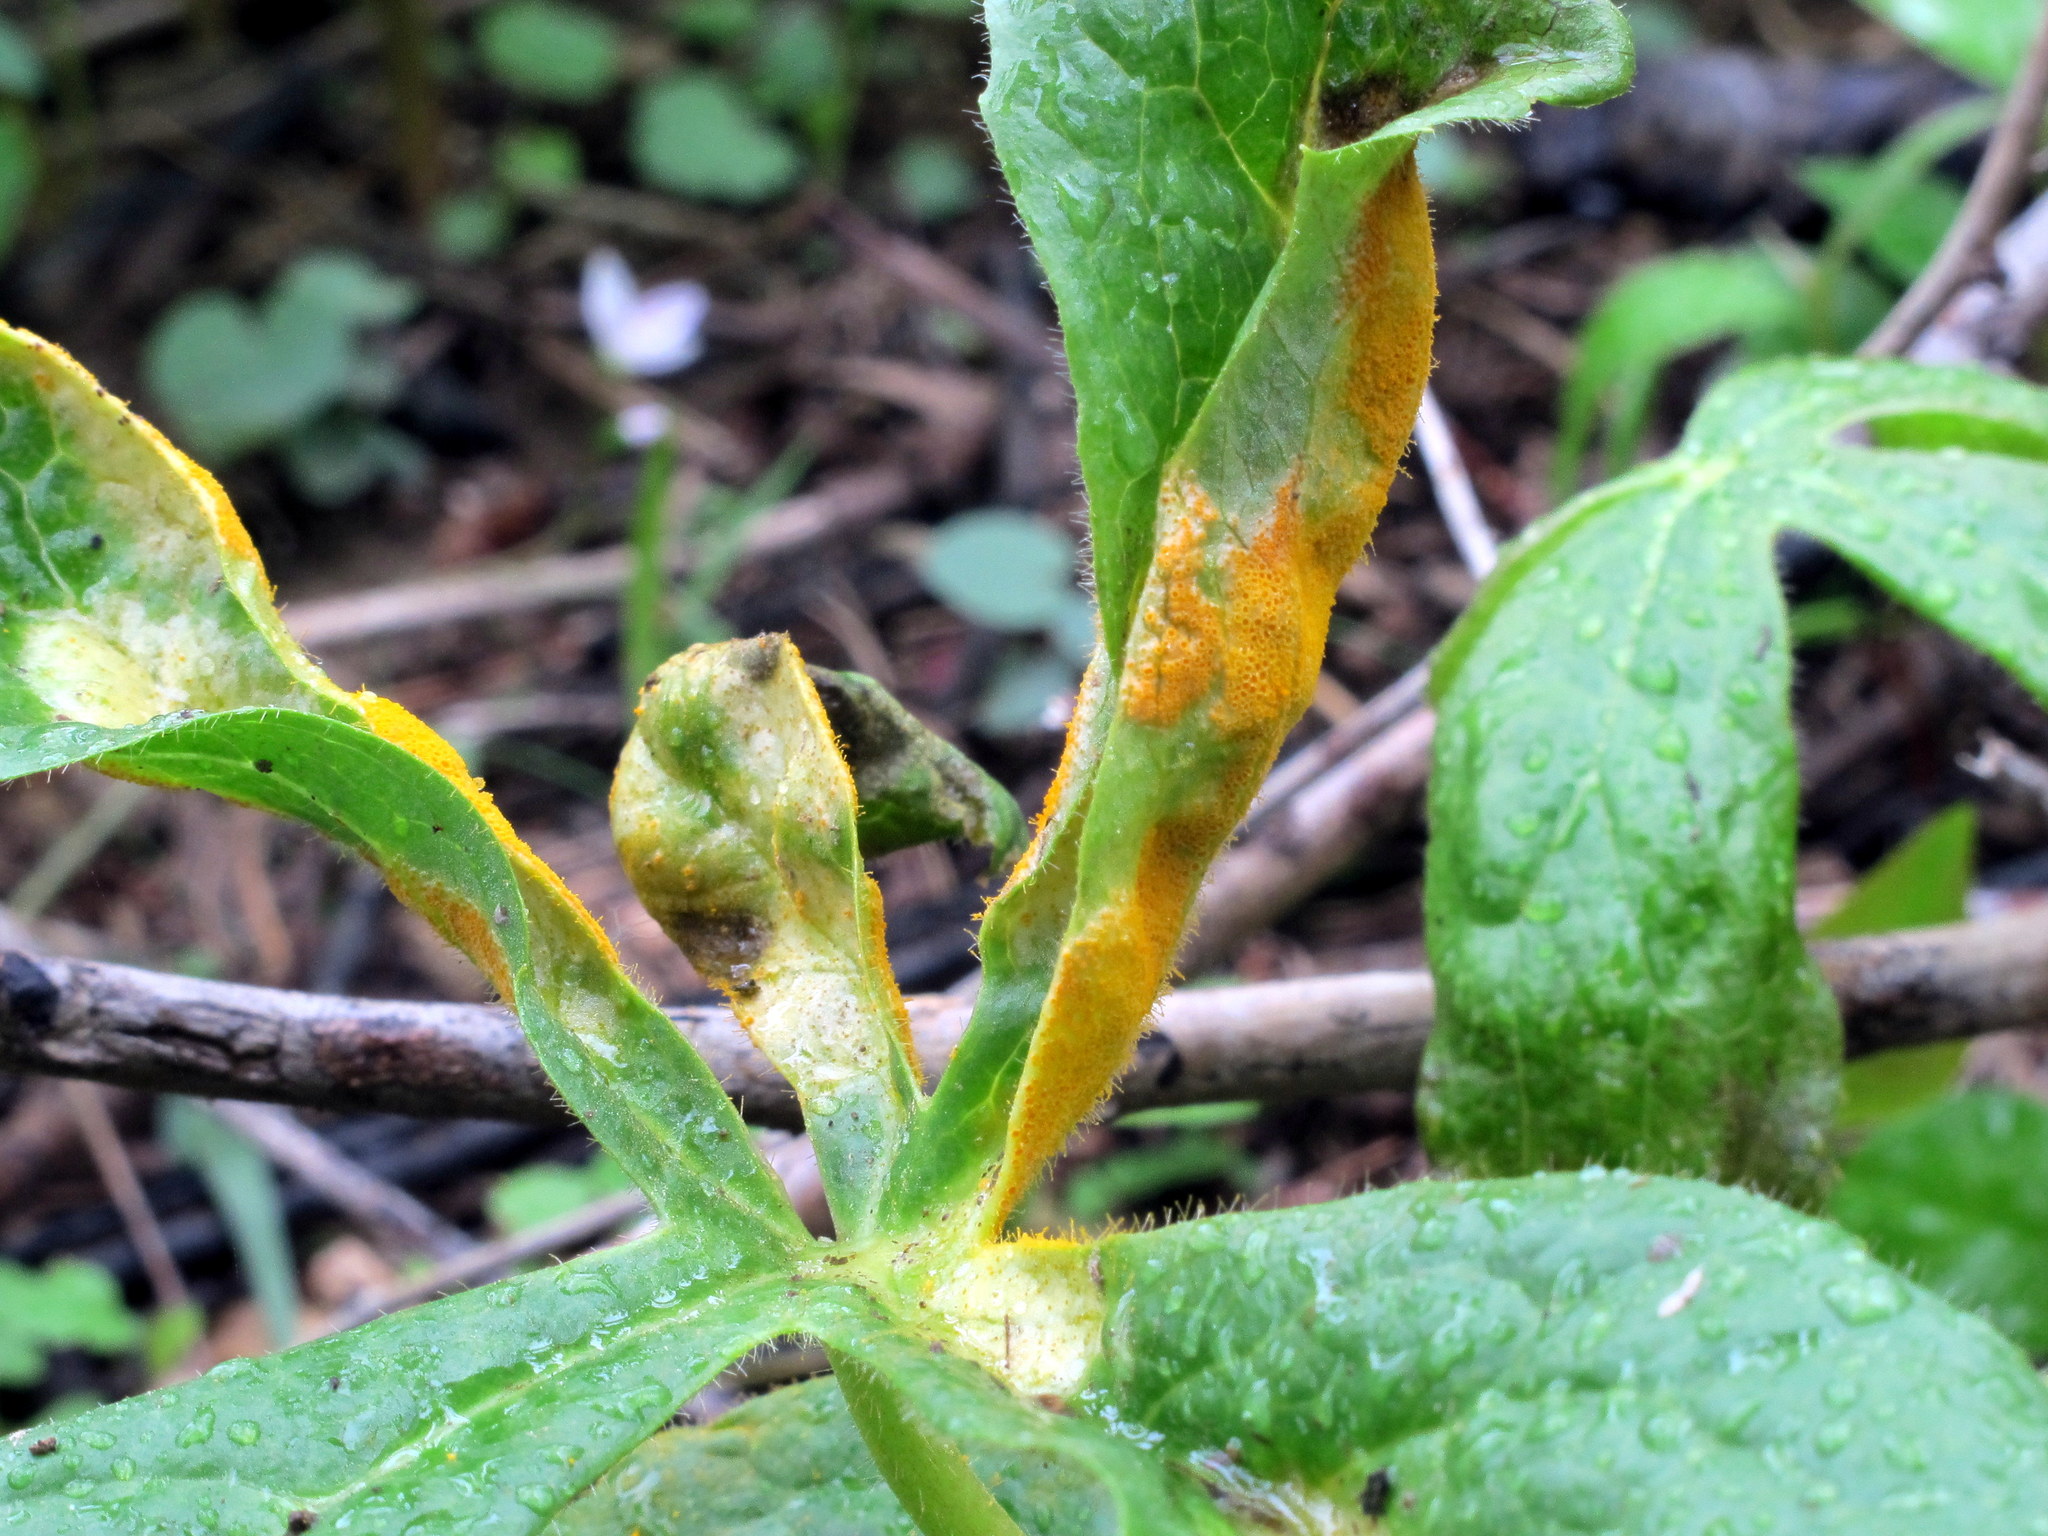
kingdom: Fungi
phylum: Basidiomycota
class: Pucciniomycetes
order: Pucciniales
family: Pucciniaceae
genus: Puccinia
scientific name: Puccinia podophylli
